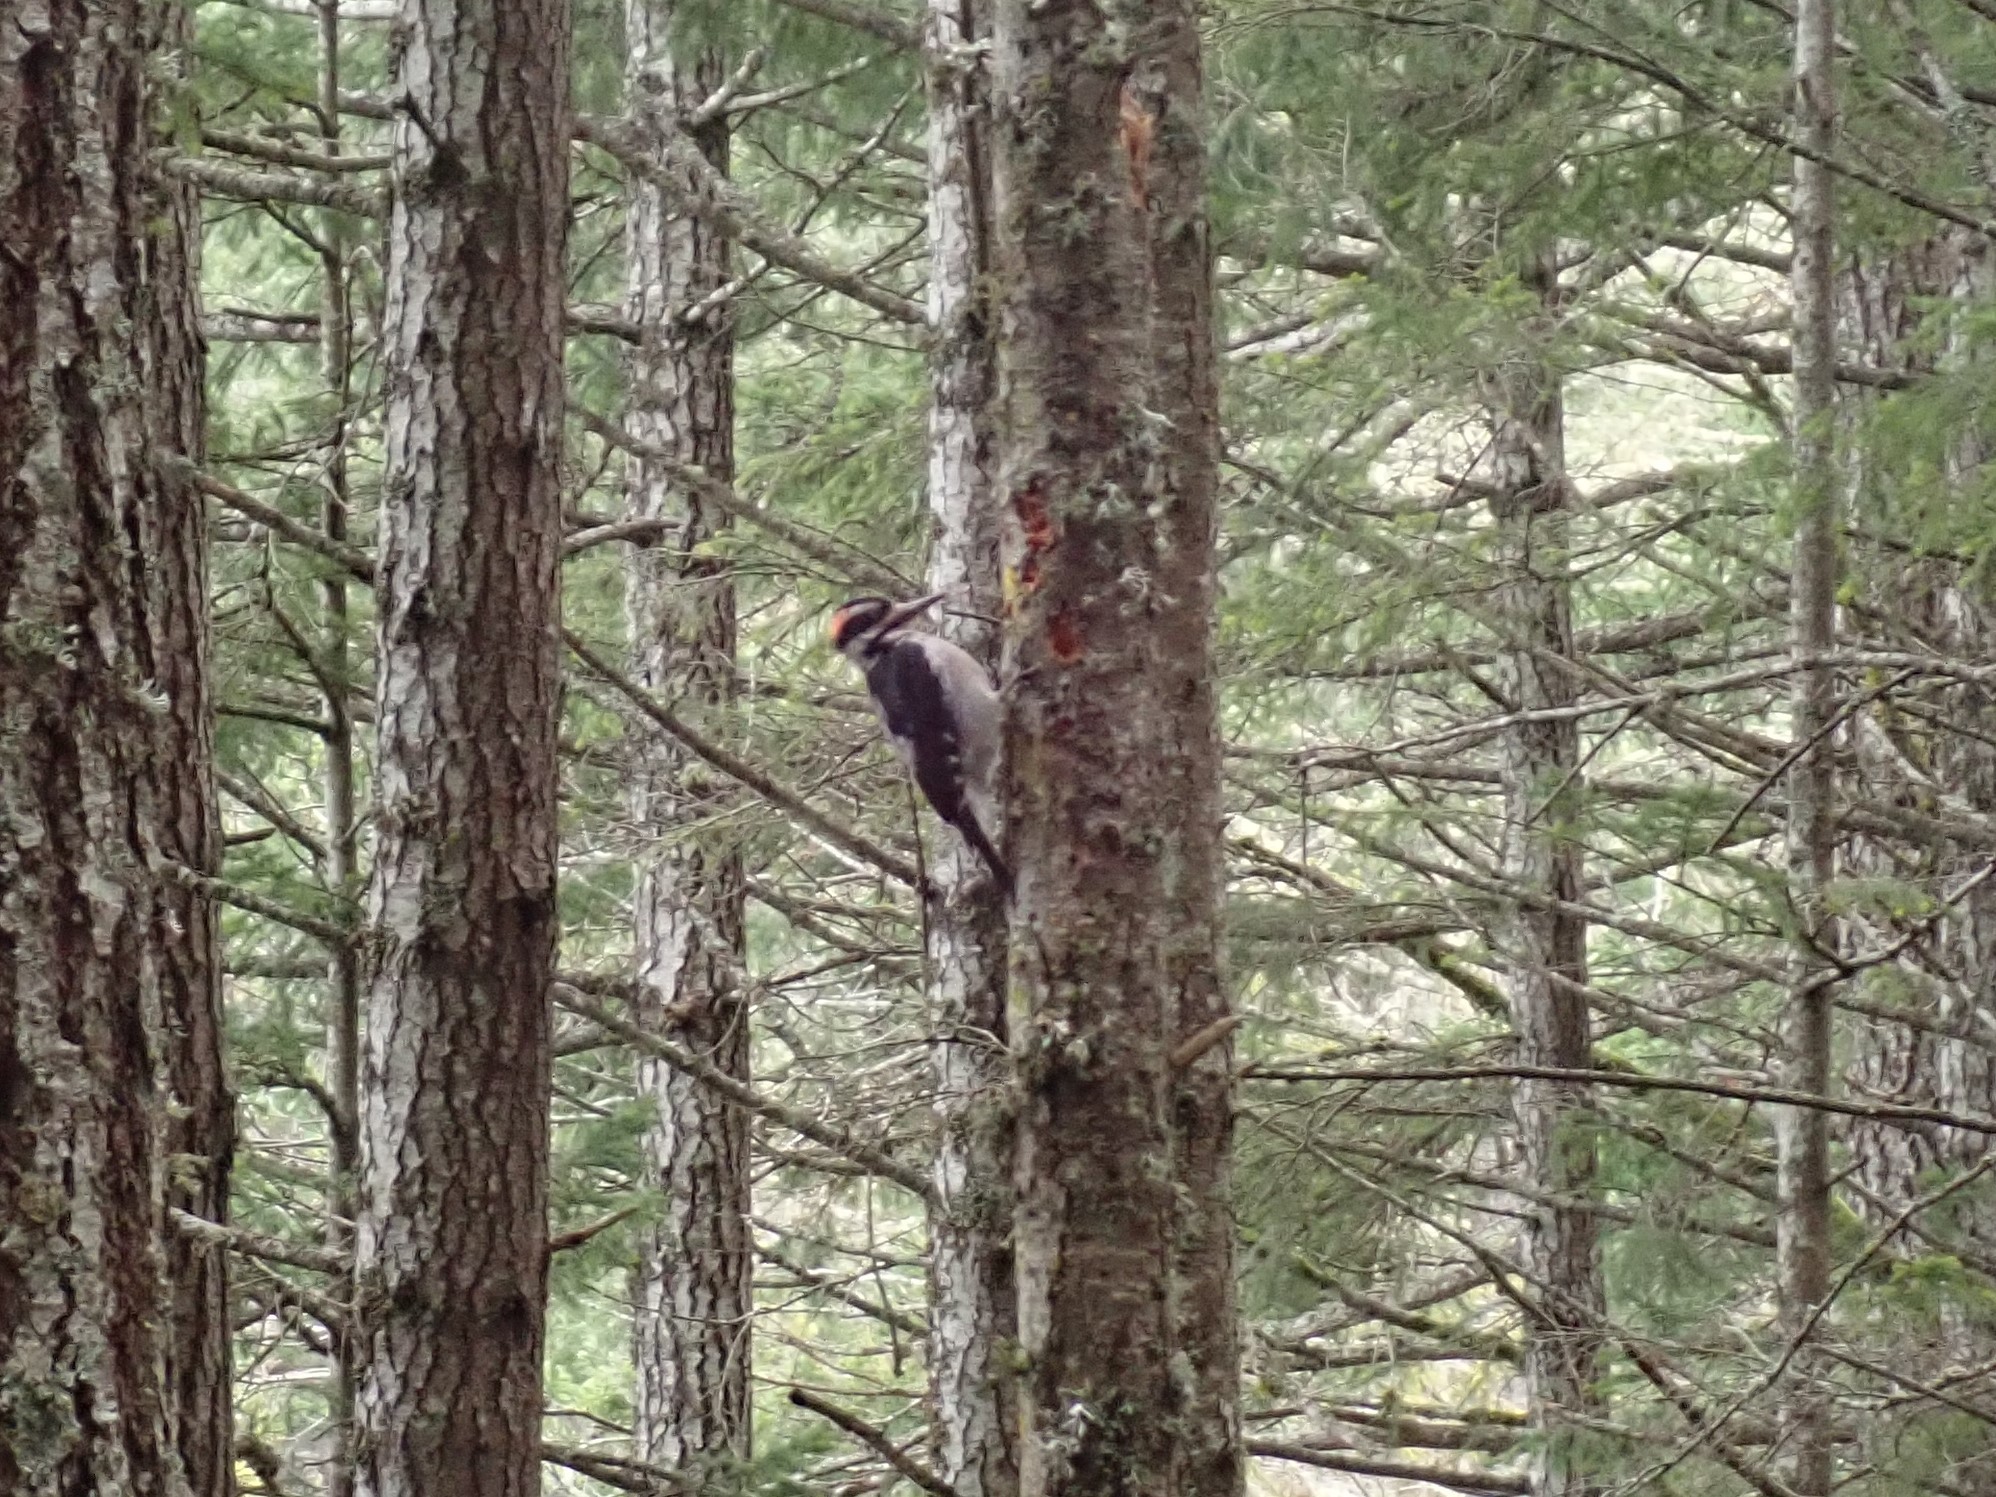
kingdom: Animalia
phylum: Chordata
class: Aves
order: Piciformes
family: Picidae
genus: Leuconotopicus
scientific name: Leuconotopicus villosus
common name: Hairy woodpecker
